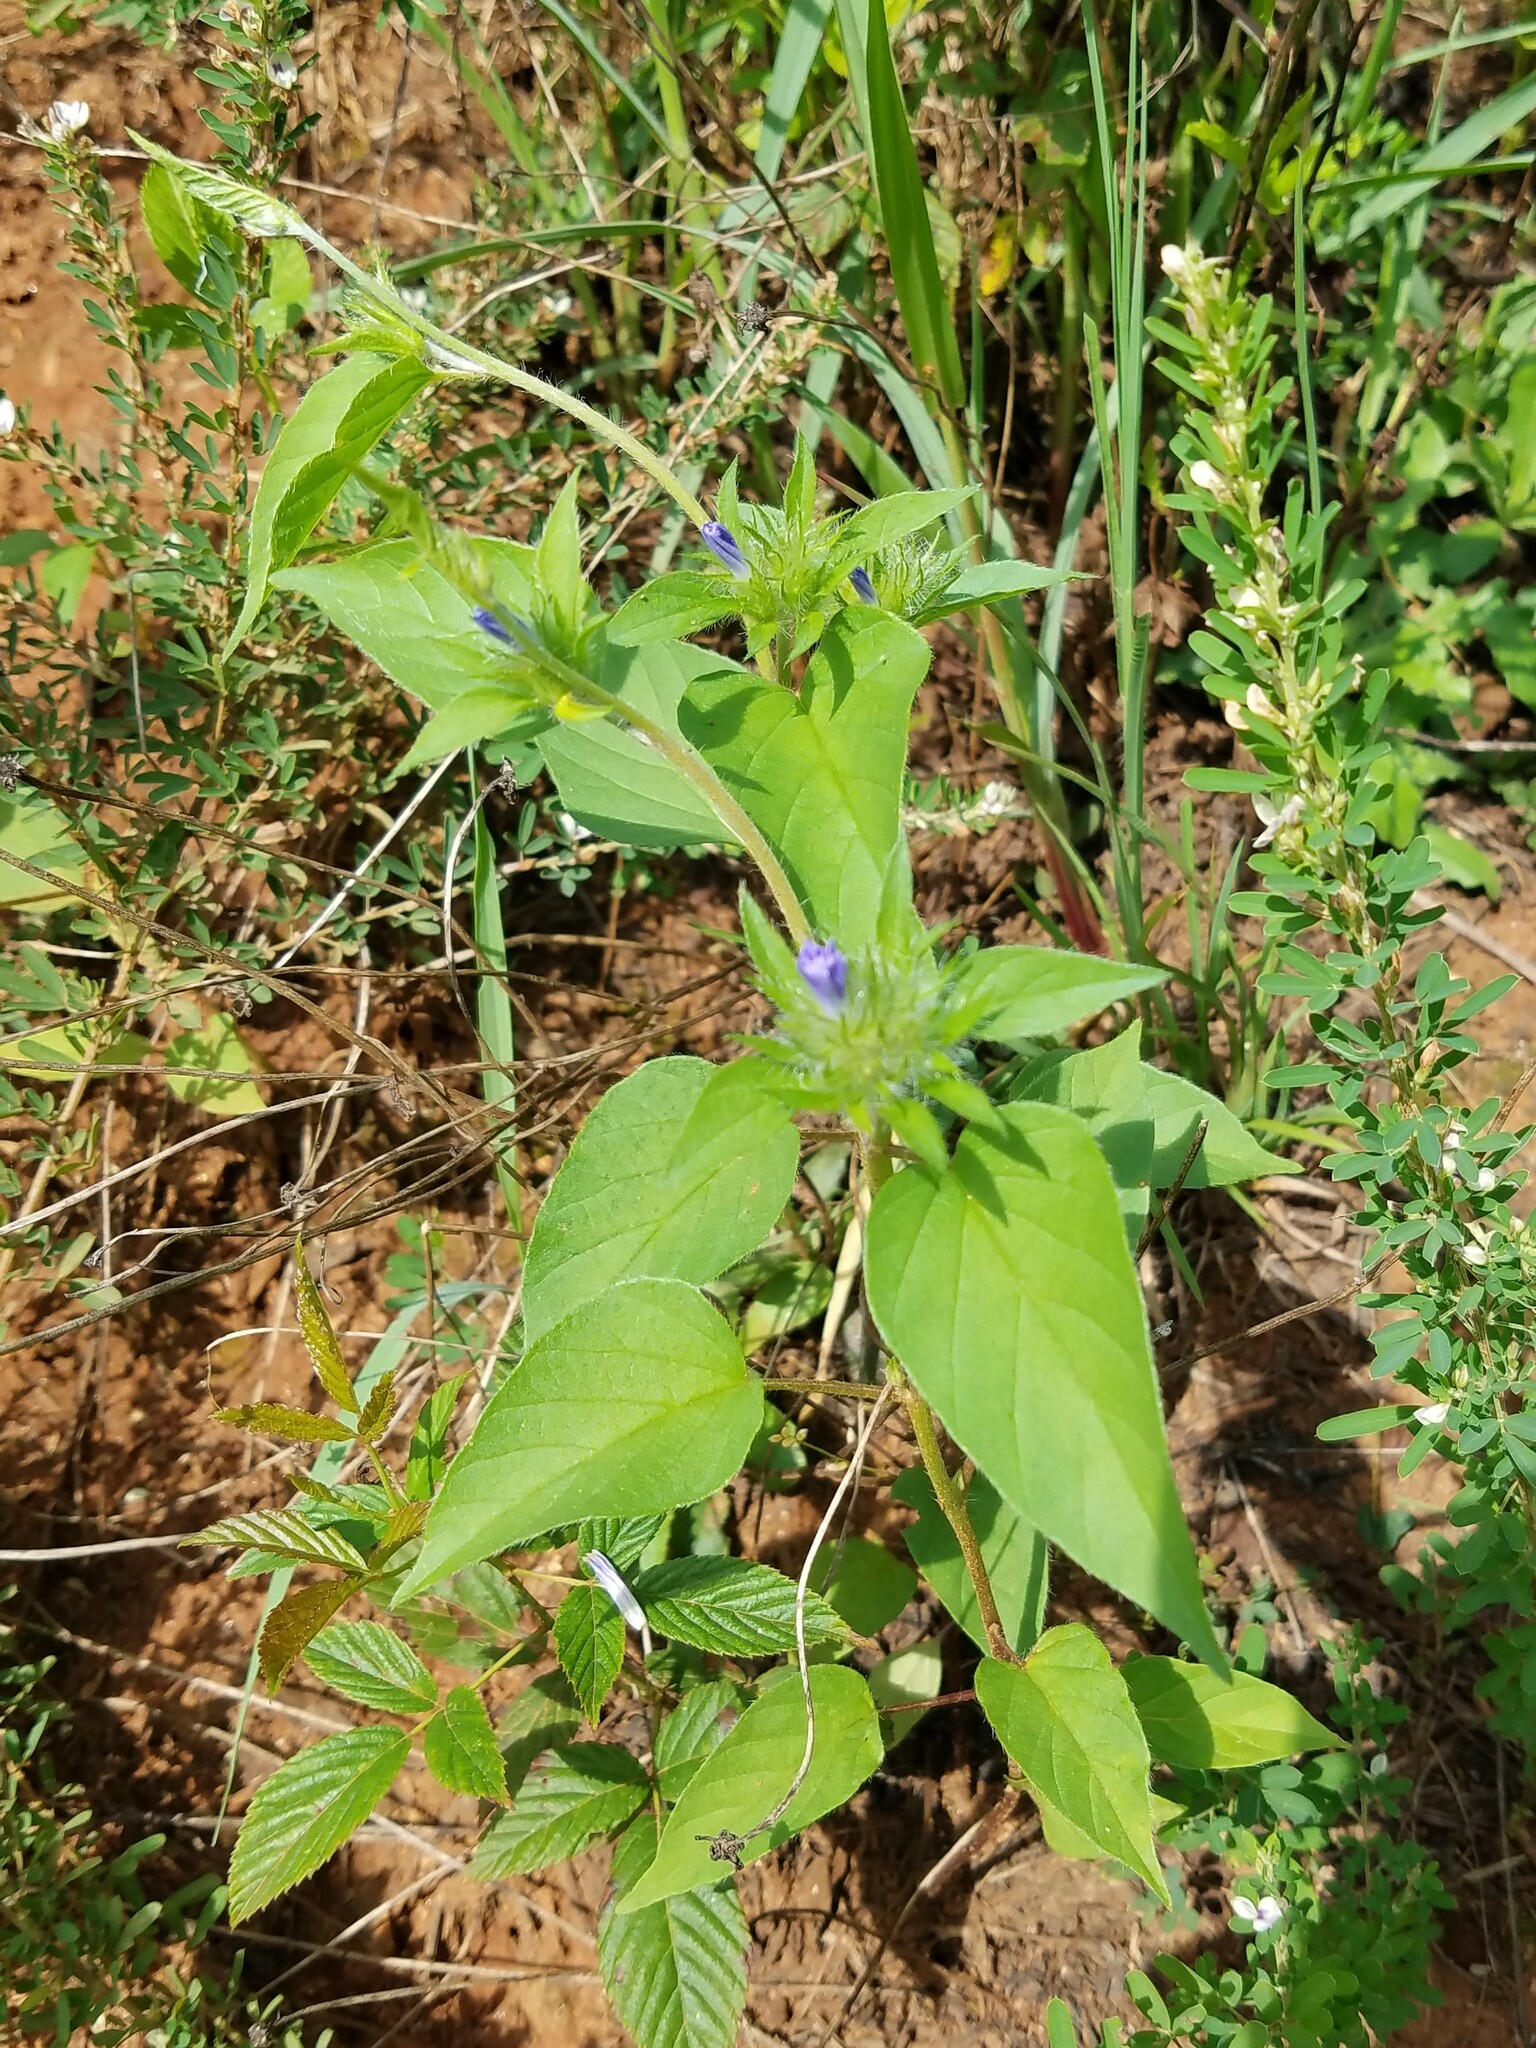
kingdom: Plantae
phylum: Tracheophyta
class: Magnoliopsida
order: Solanales
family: Convolvulaceae
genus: Jacquemontia
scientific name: Jacquemontia tamnifolia
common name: Hairy clustervine
